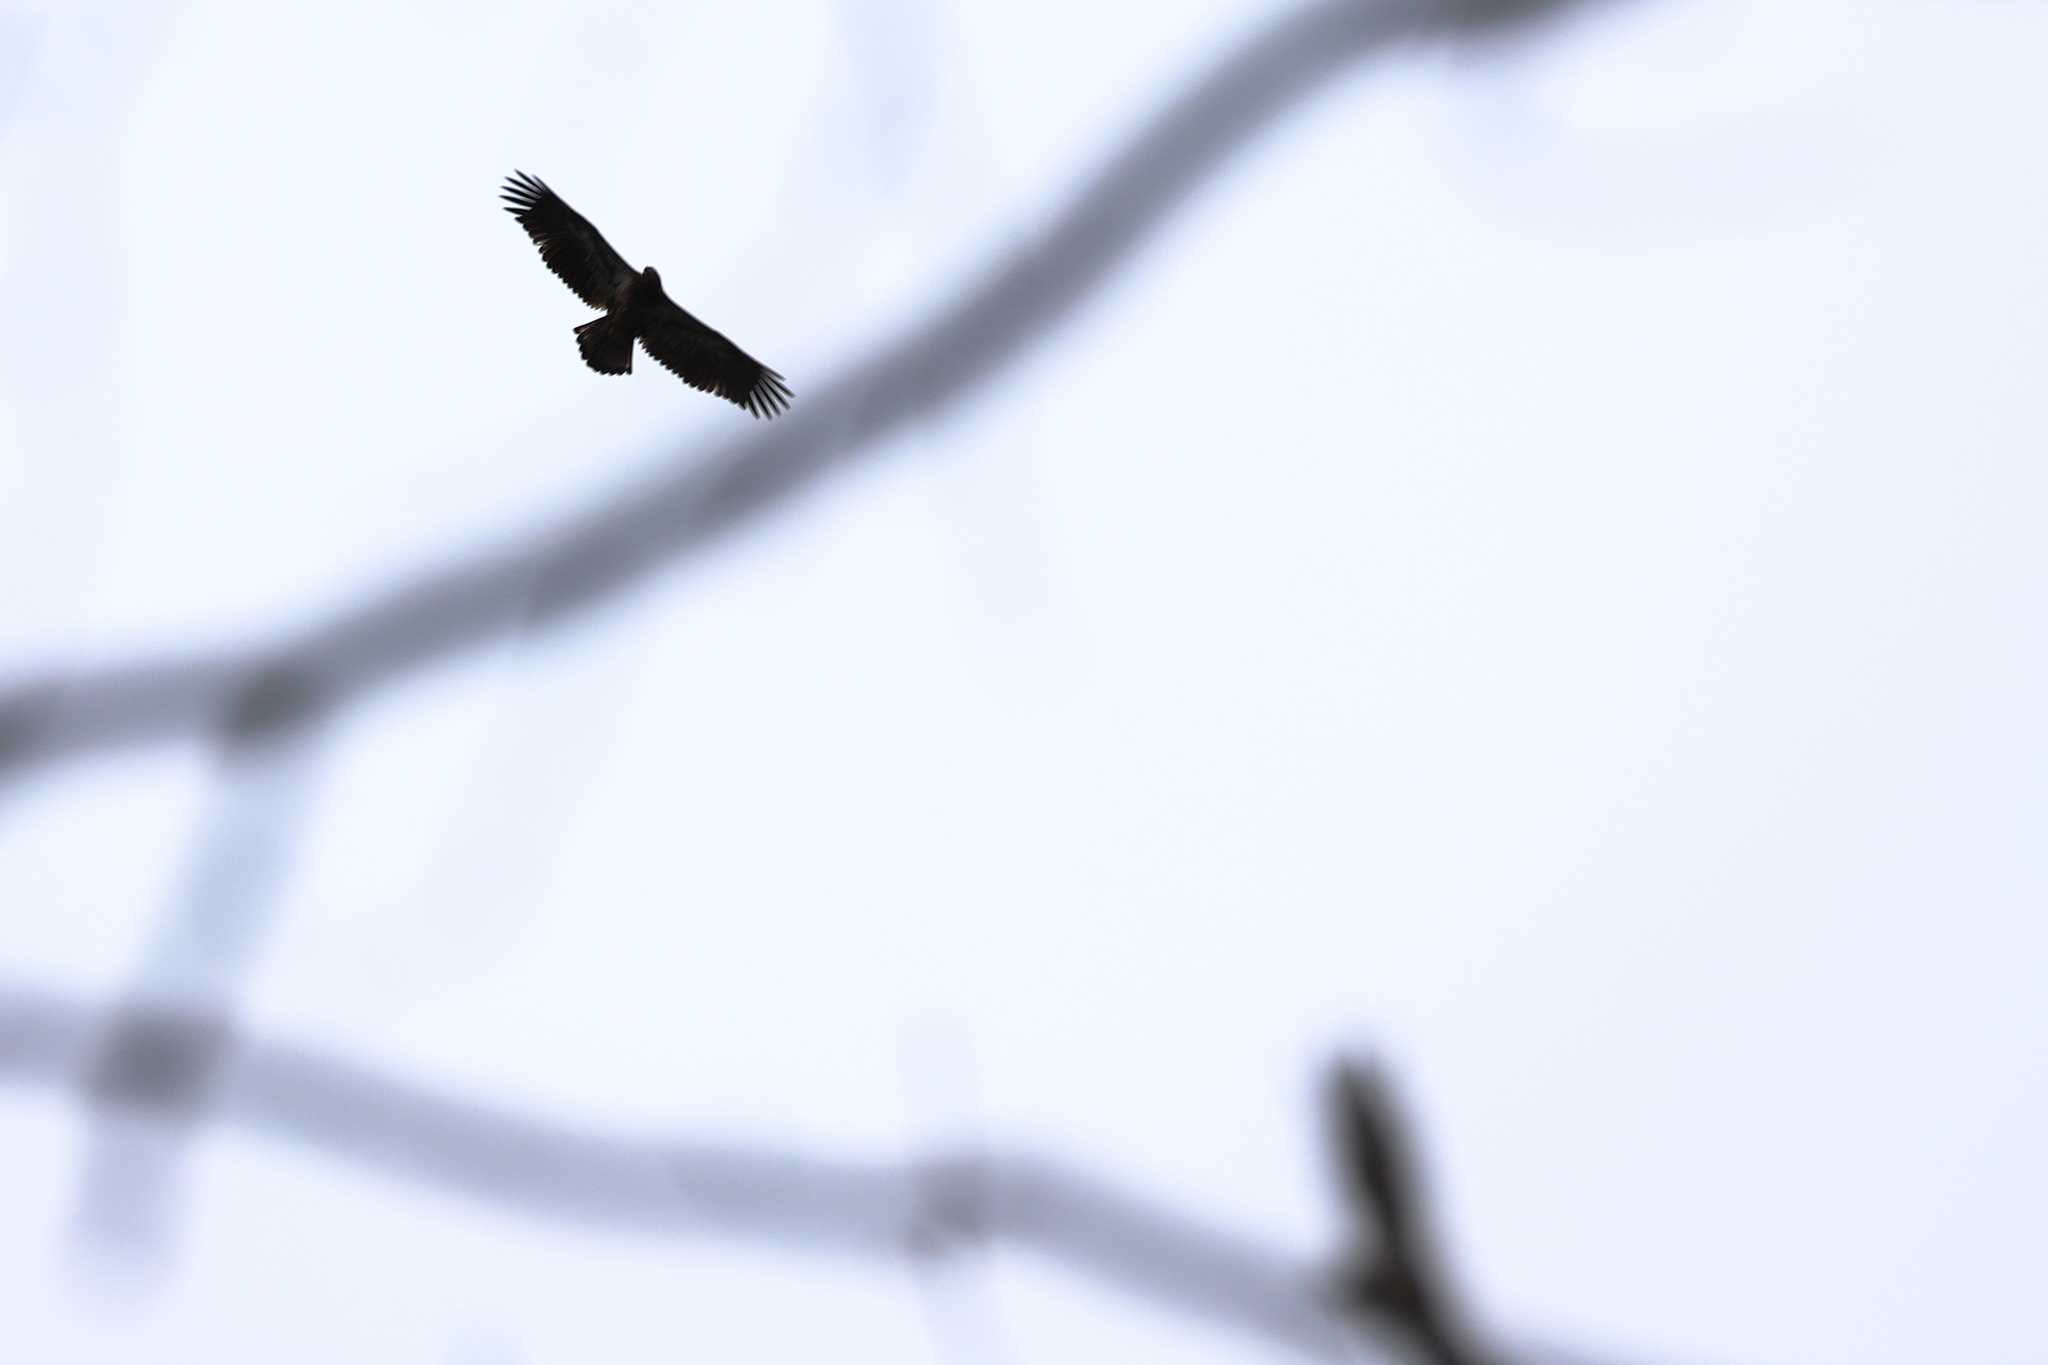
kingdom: Animalia
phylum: Chordata
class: Aves
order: Accipitriformes
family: Accipitridae
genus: Haliaeetus
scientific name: Haliaeetus leucocephalus
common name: Bald eagle
